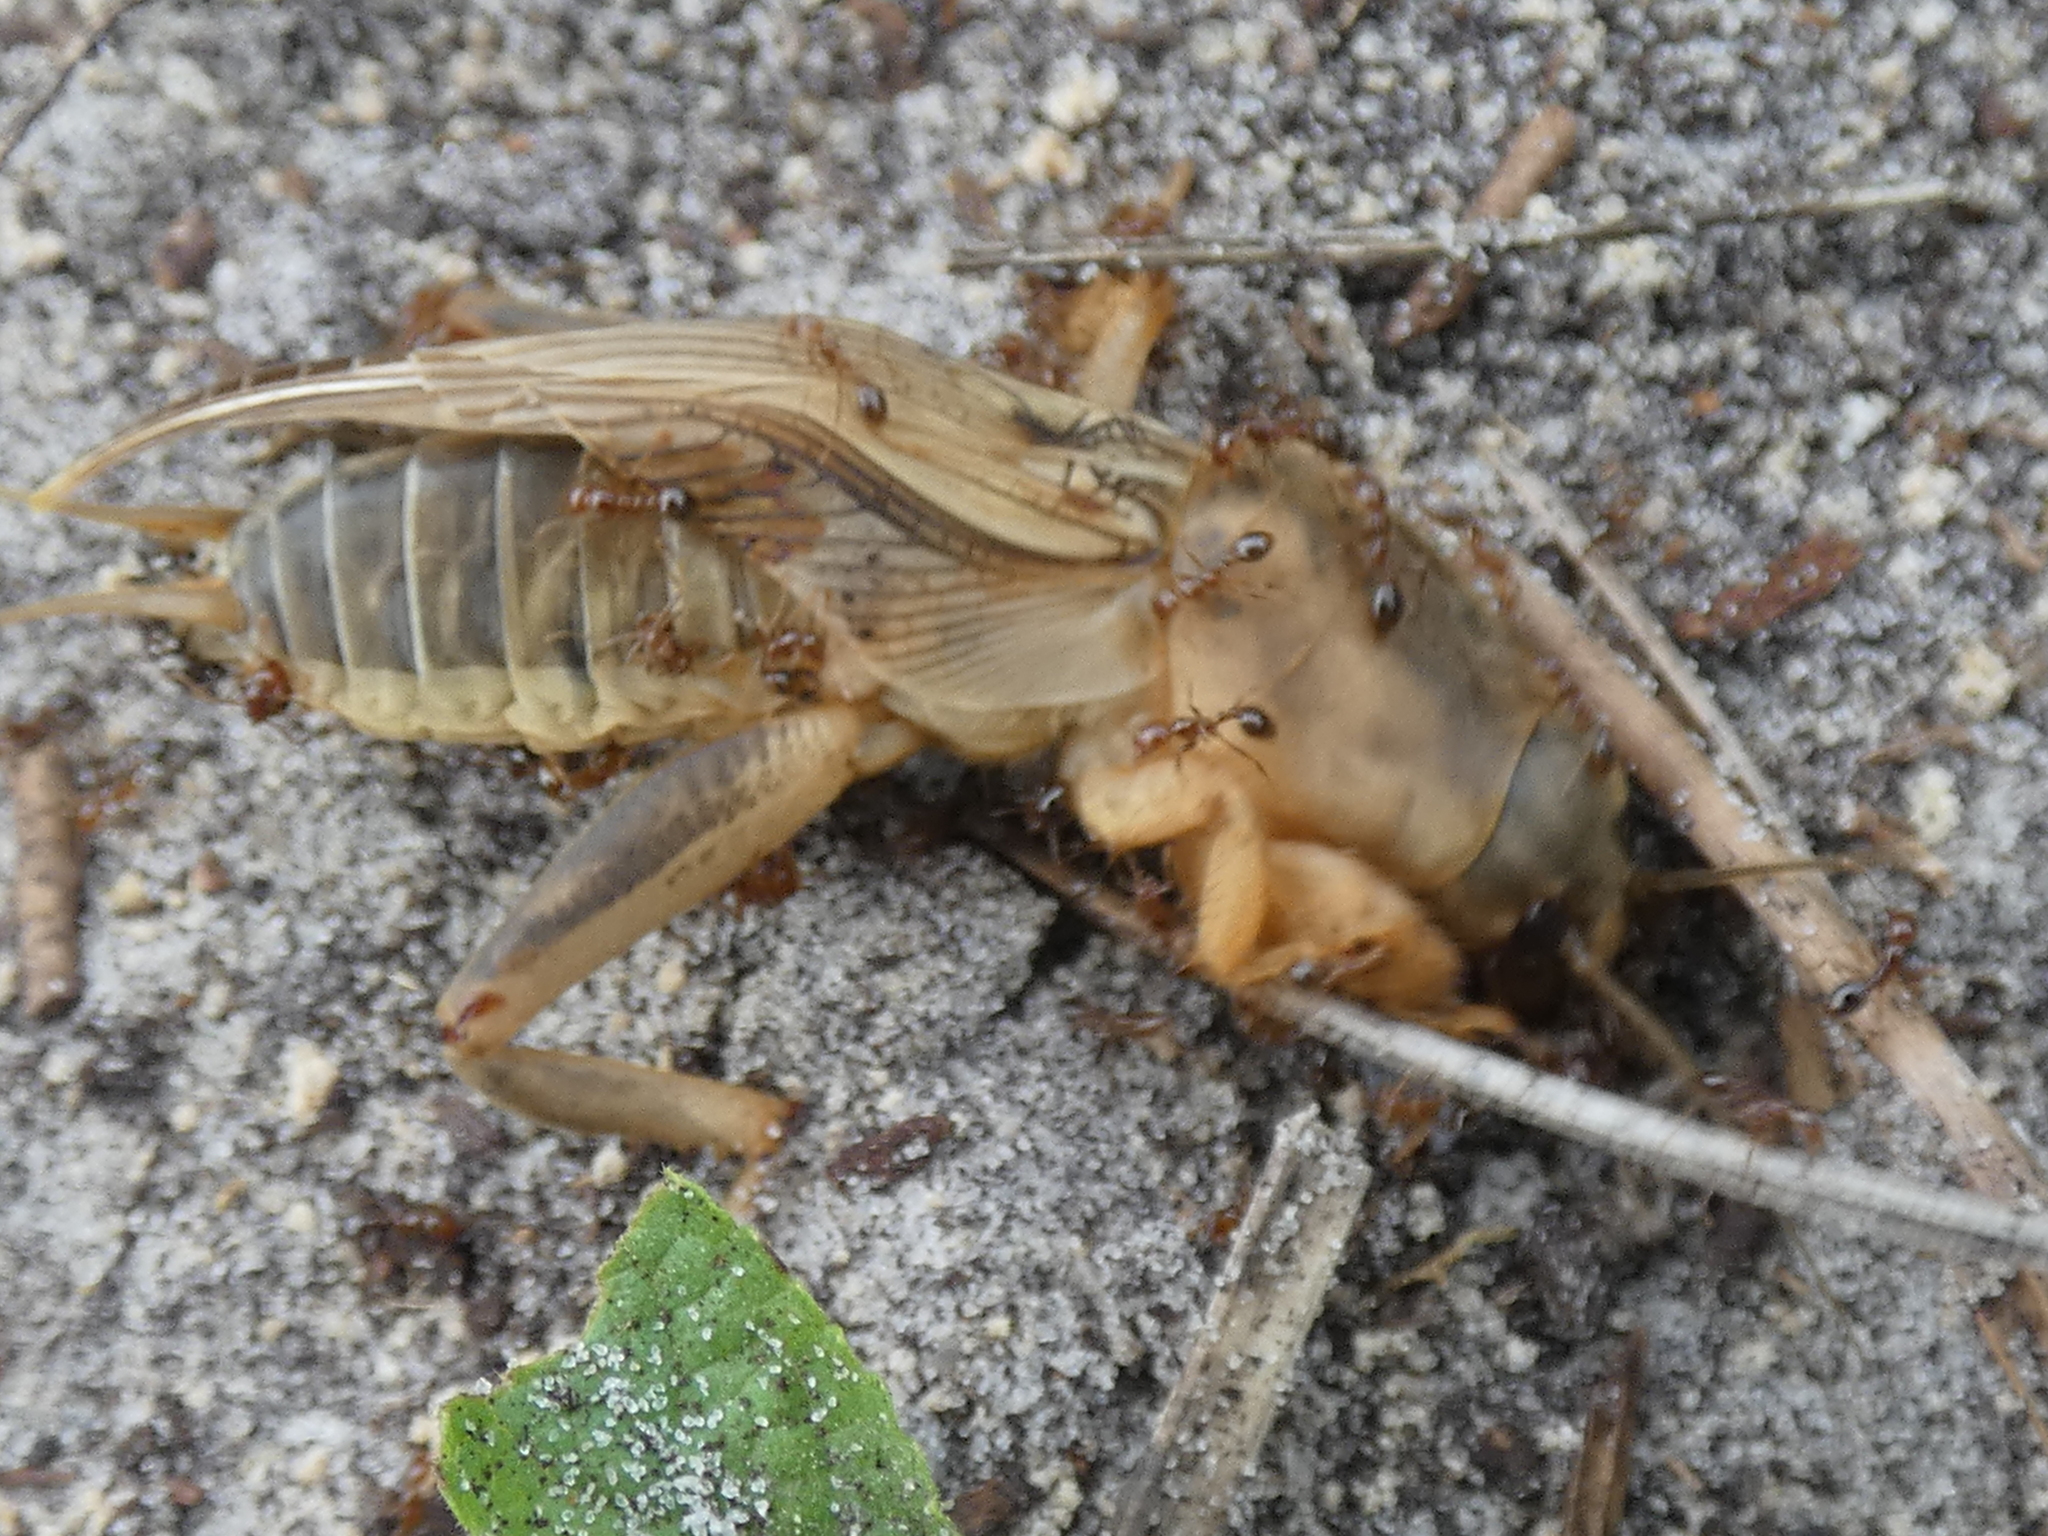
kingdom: Animalia
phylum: Arthropoda
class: Insecta
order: Orthoptera
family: Gryllotalpidae
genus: Neoscapteriscus
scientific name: Neoscapteriscus vicinus
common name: Tawny mole cricket
